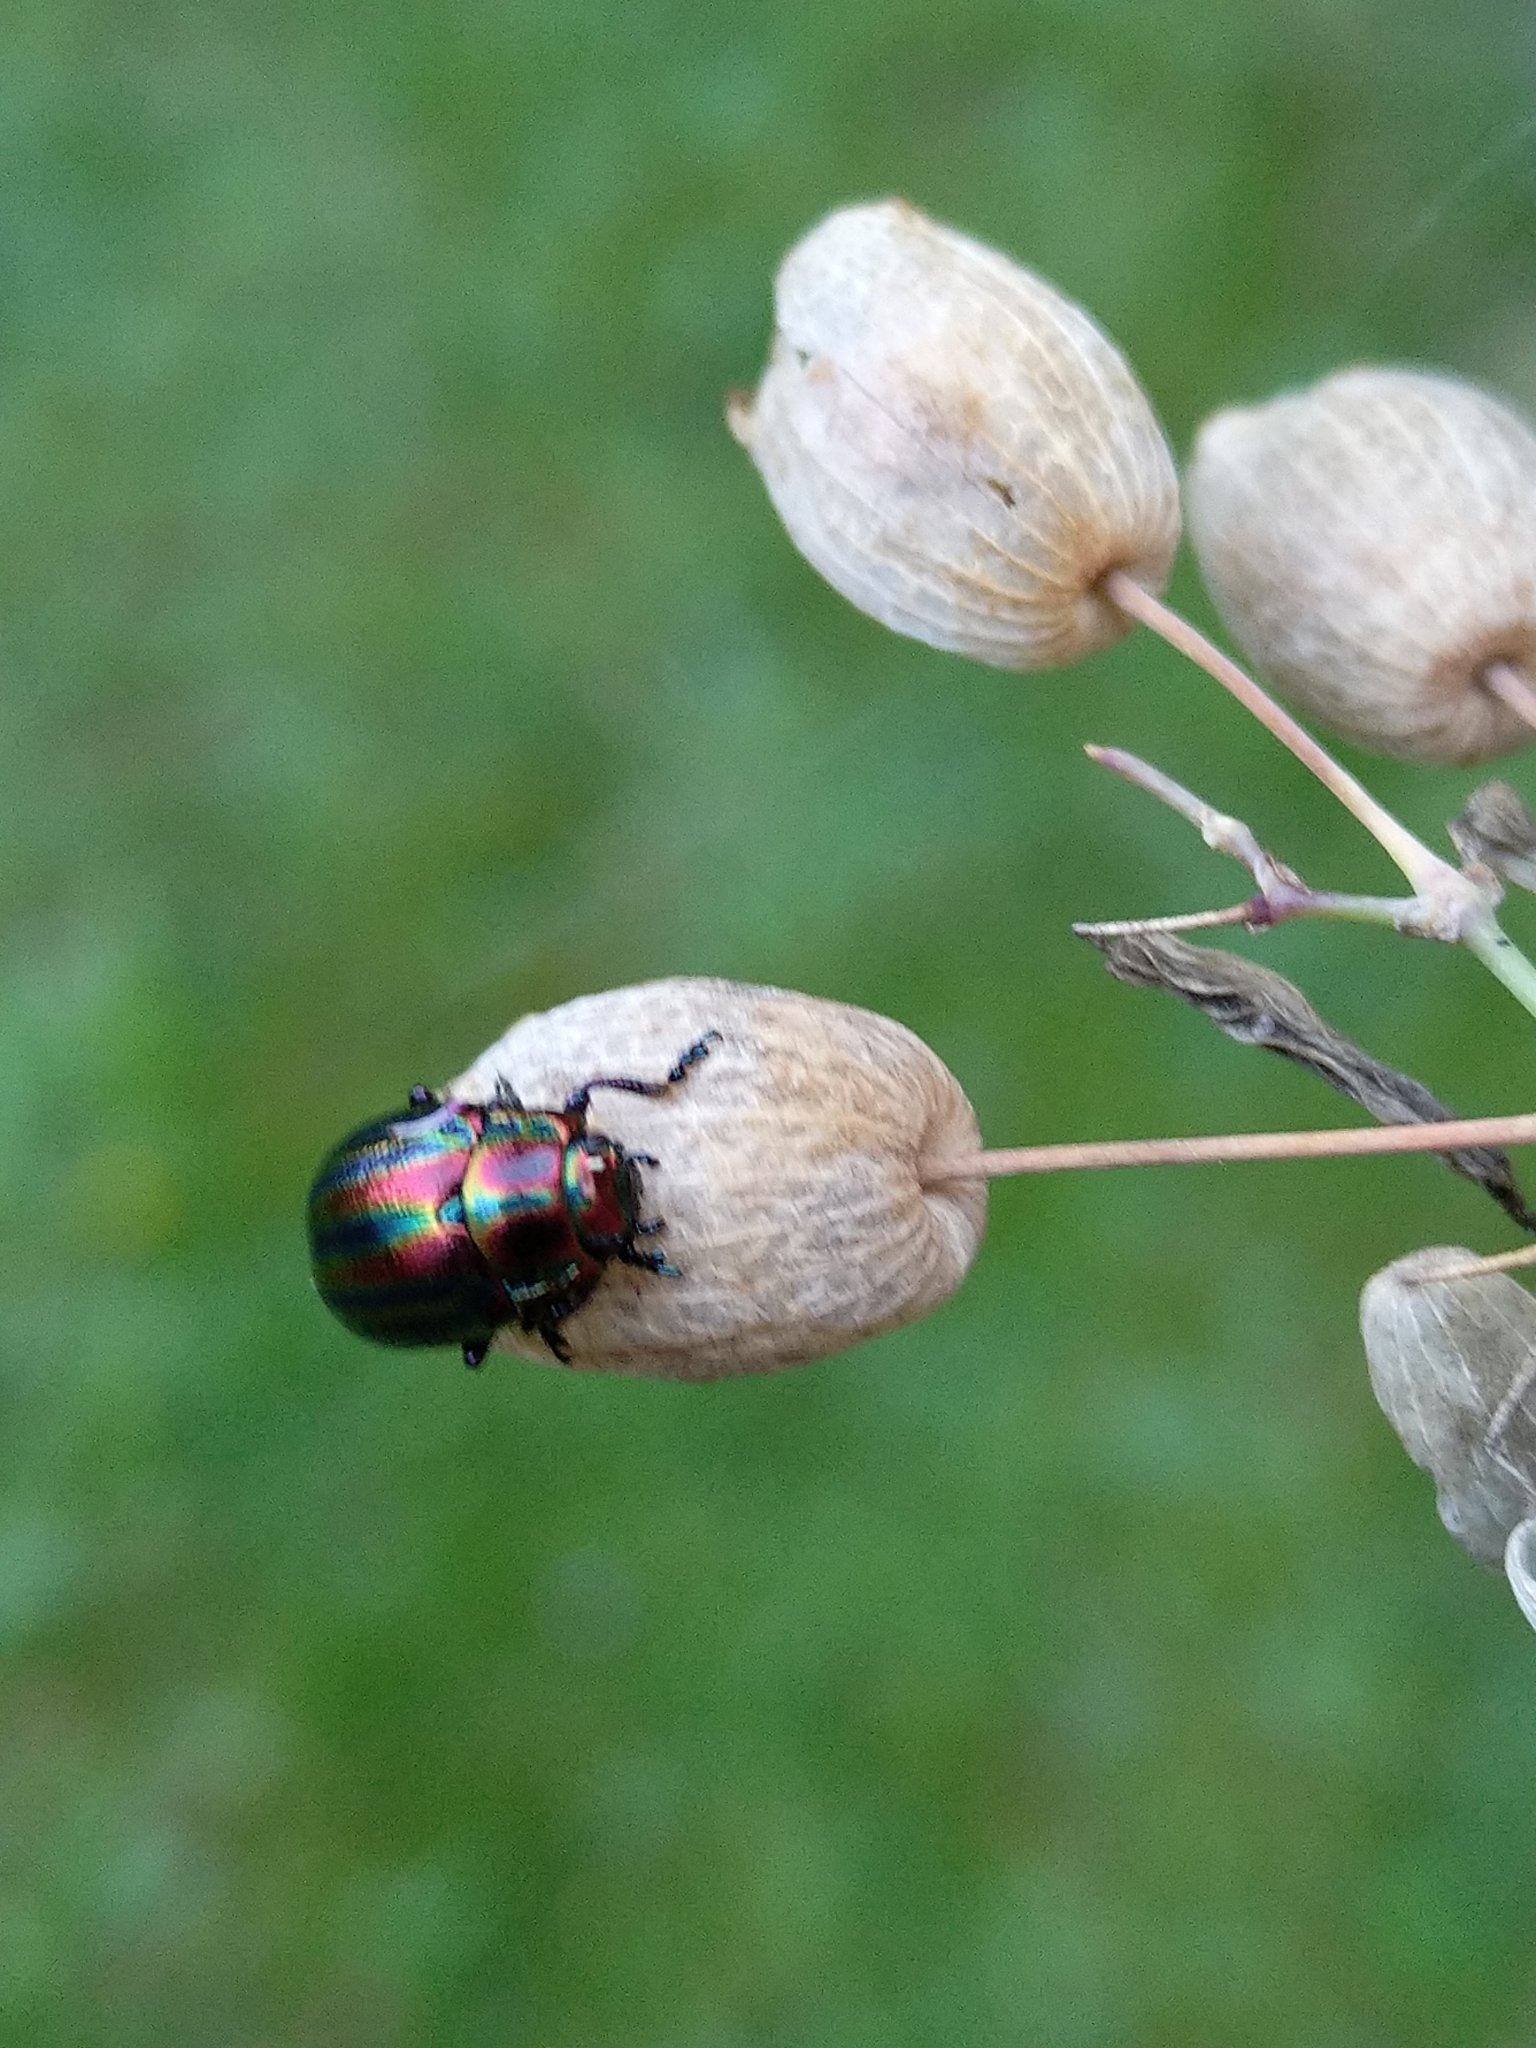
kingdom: Animalia
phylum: Arthropoda
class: Insecta
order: Coleoptera
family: Chrysomelidae
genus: Chrysolina
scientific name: Chrysolina cerealis
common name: Rainbow leaf beetle
